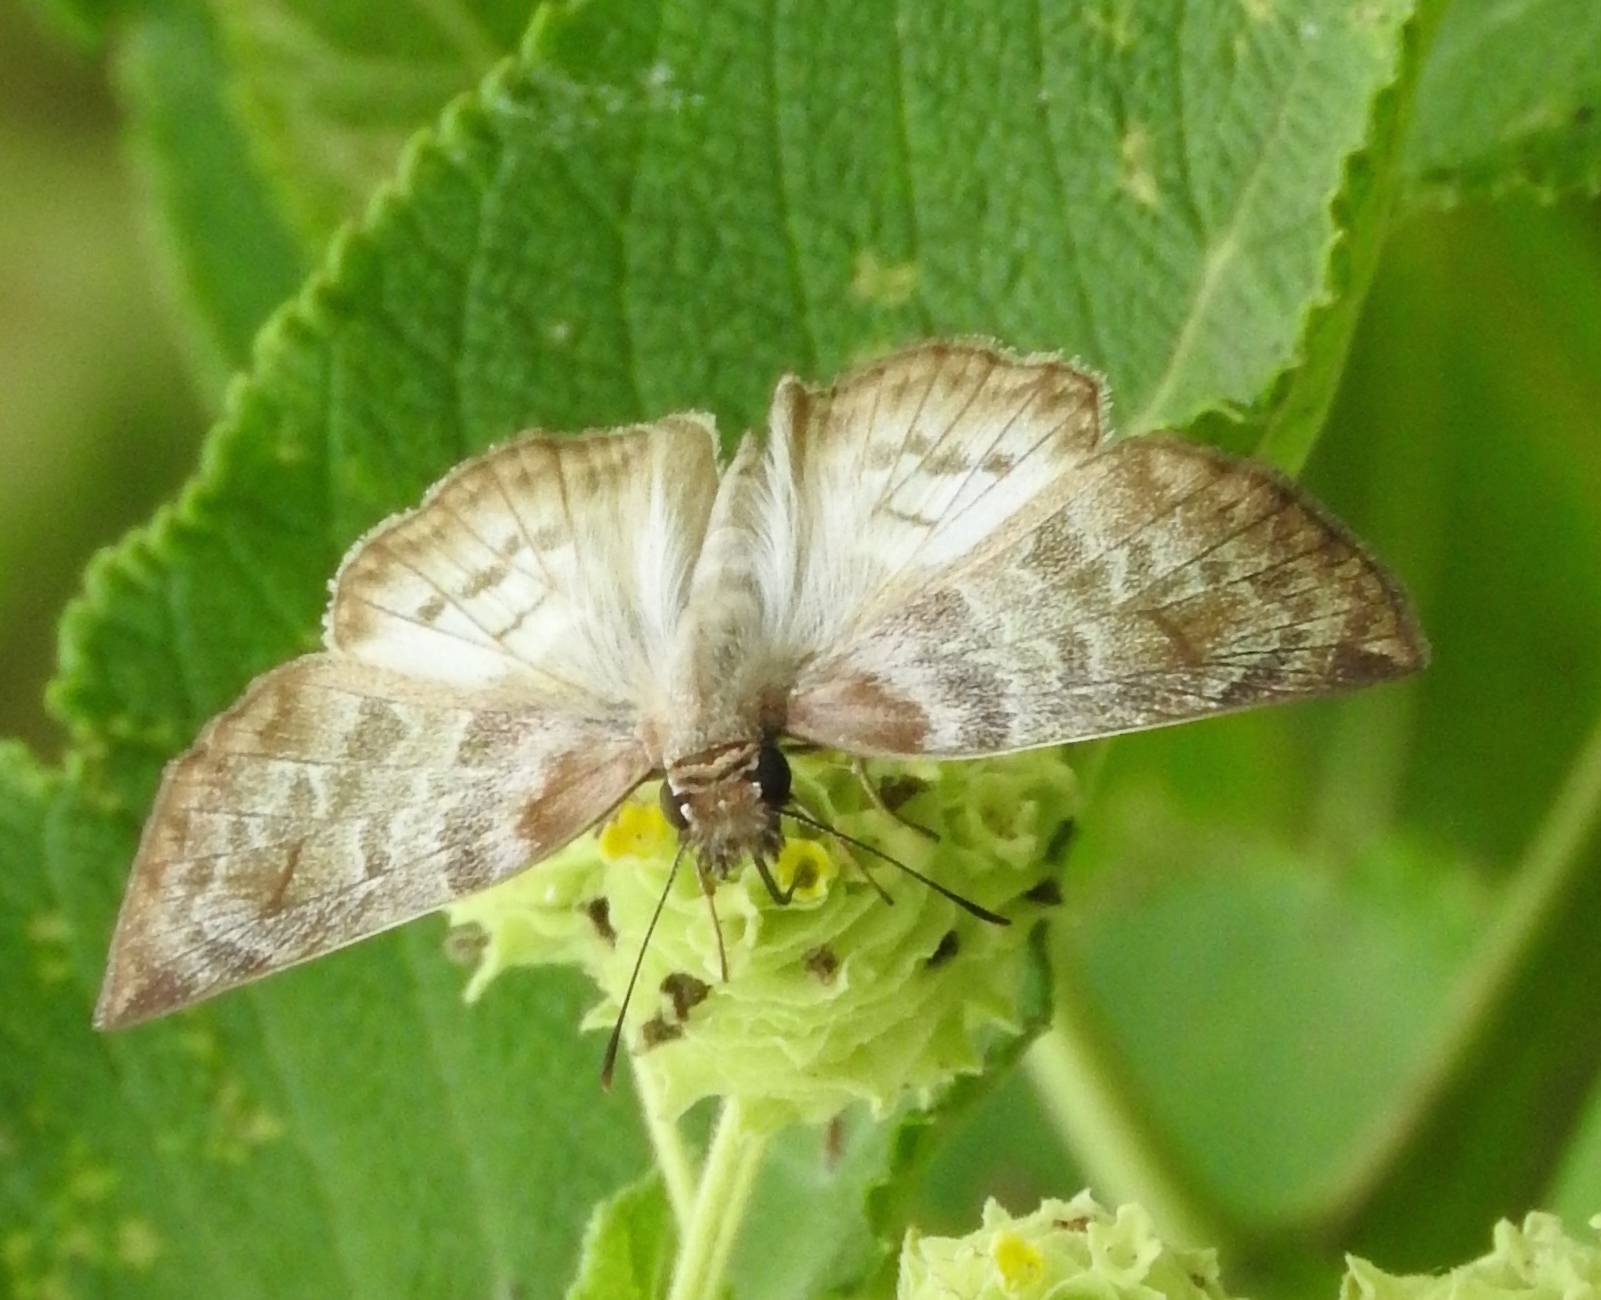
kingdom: Animalia
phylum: Arthropoda
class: Insecta
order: Lepidoptera
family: Hesperiidae
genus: Mylon
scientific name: Mylon pelopidas
